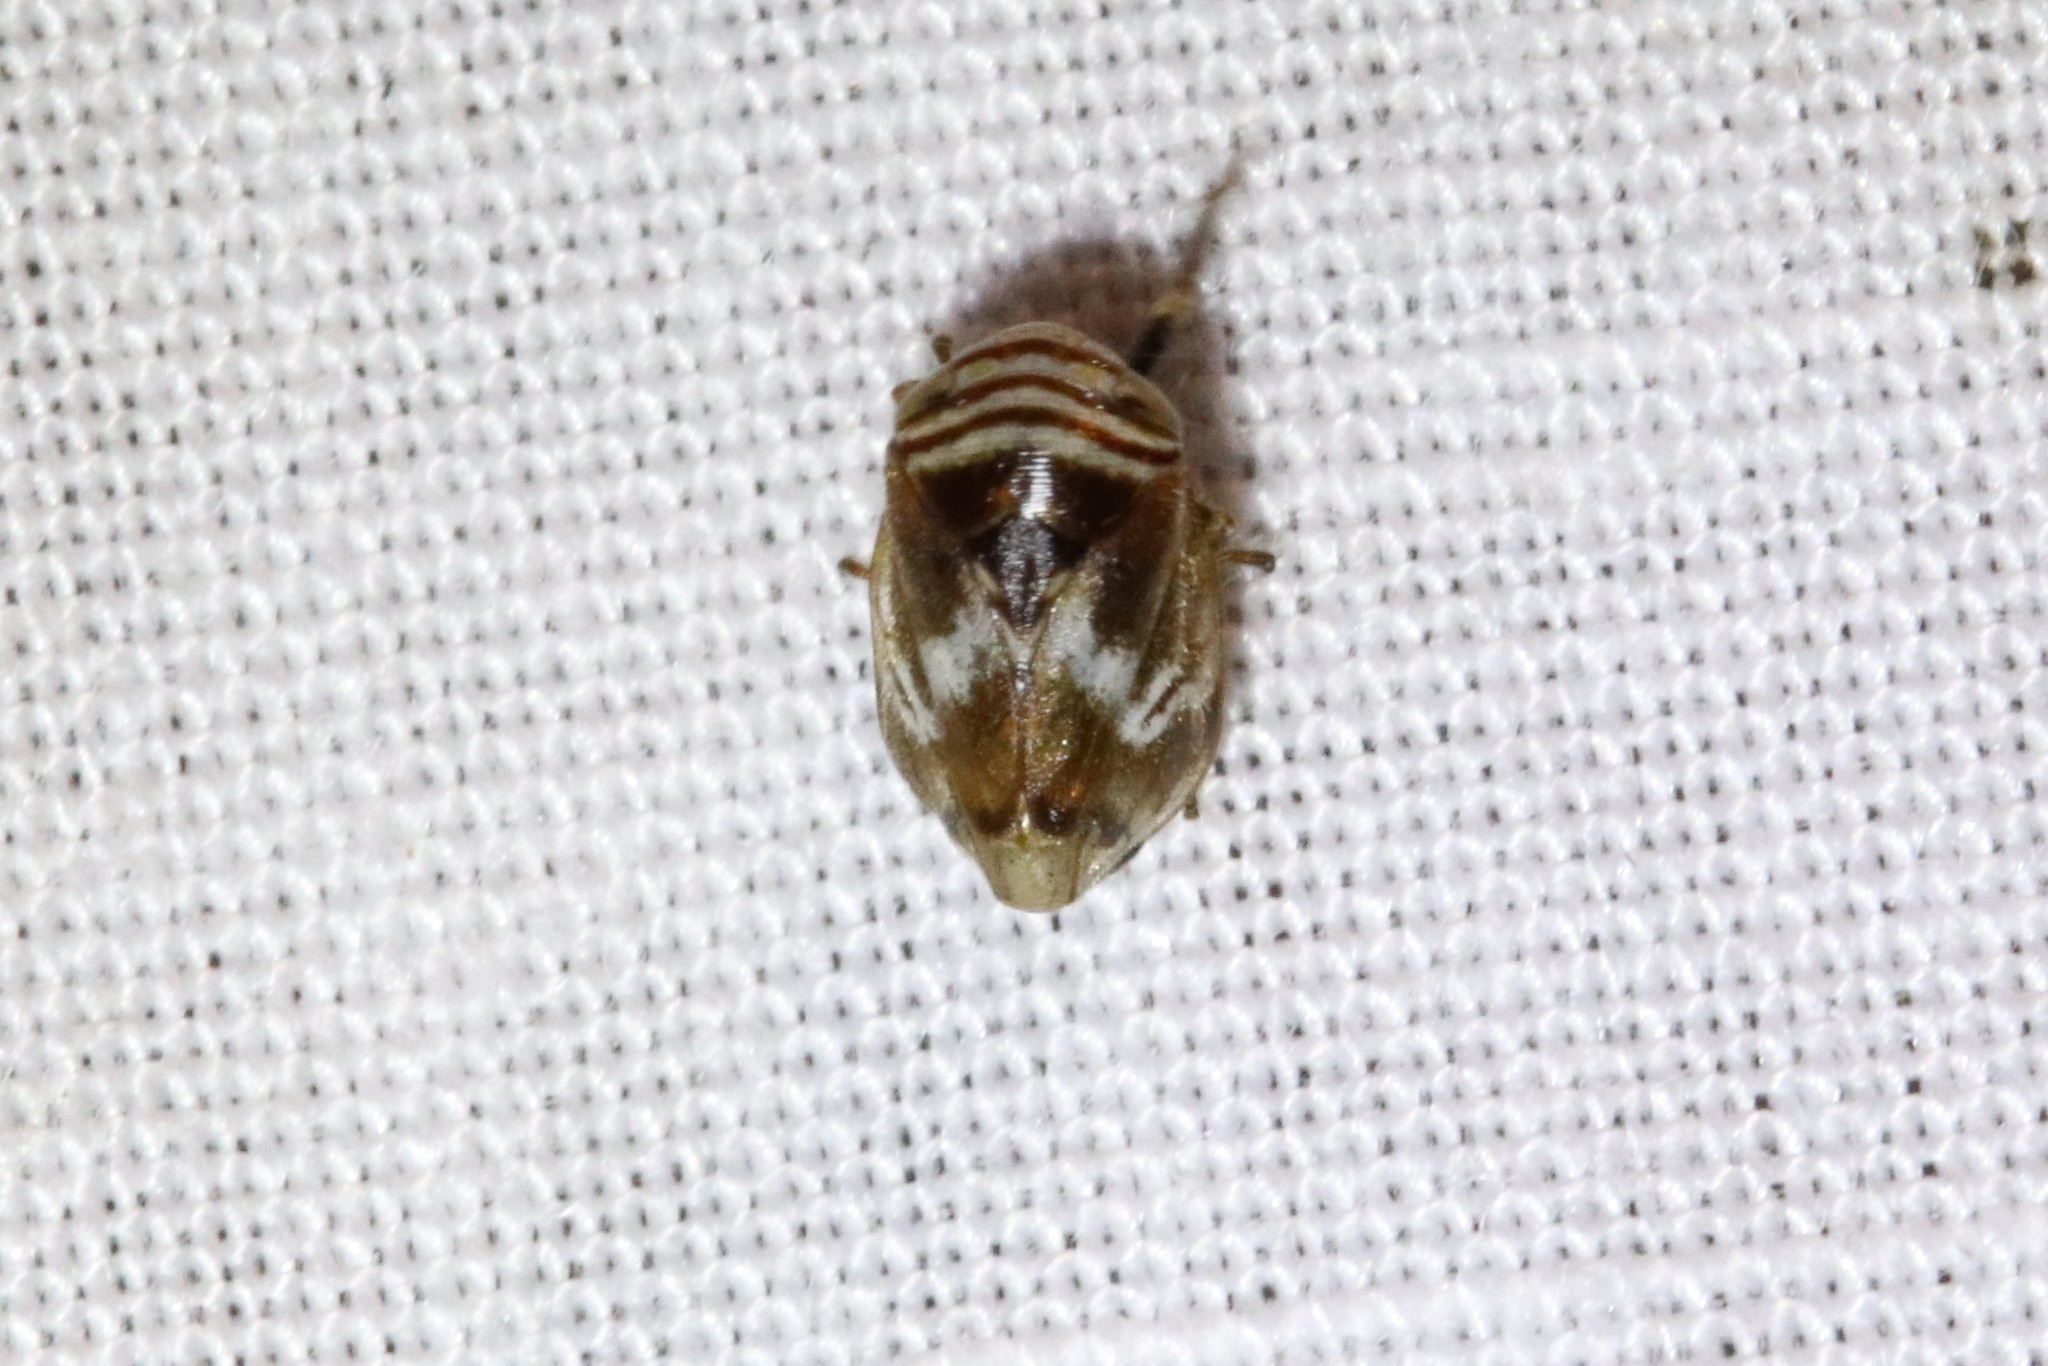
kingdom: Animalia
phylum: Arthropoda
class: Insecta
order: Hemiptera
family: Clastopteridae
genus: Clastoptera
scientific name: Clastoptera obtusa
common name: Alder spittlebug
